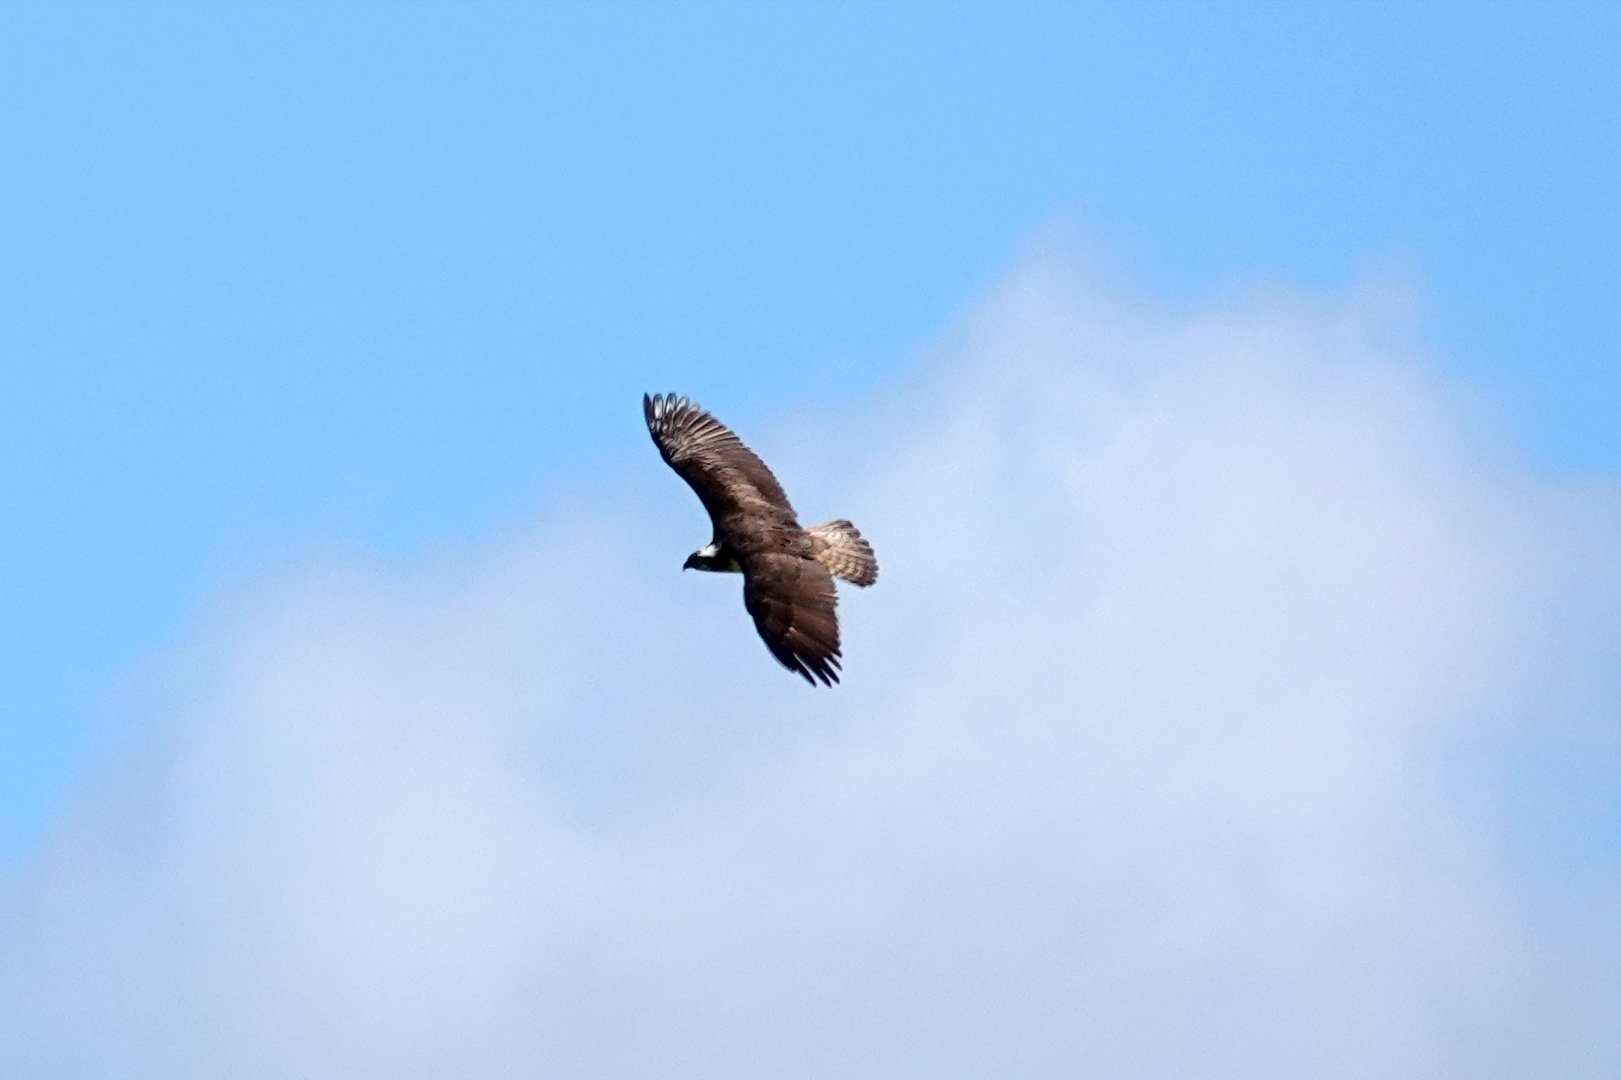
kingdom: Animalia
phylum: Chordata
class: Aves
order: Accipitriformes
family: Pandionidae
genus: Pandion
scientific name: Pandion haliaetus
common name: Osprey
